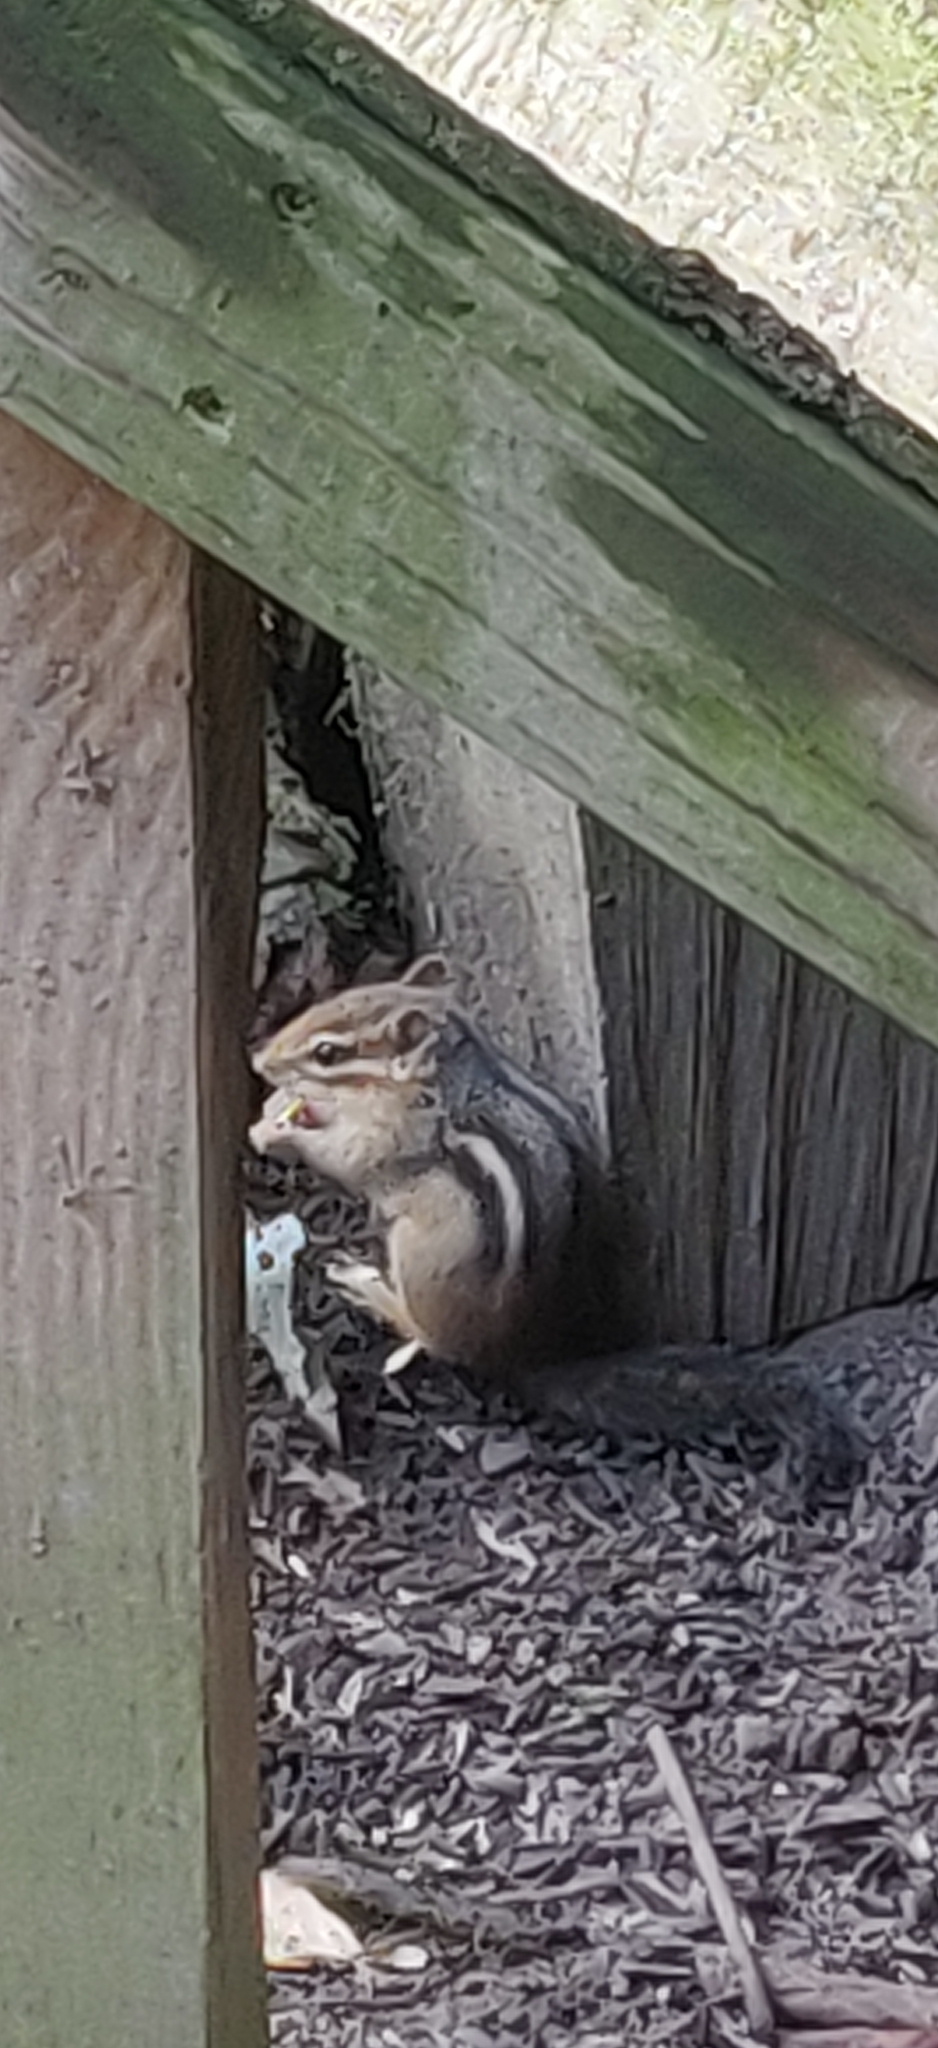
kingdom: Animalia
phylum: Chordata
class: Mammalia
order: Rodentia
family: Sciuridae
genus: Tamias
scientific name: Tamias striatus
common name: Eastern chipmunk
